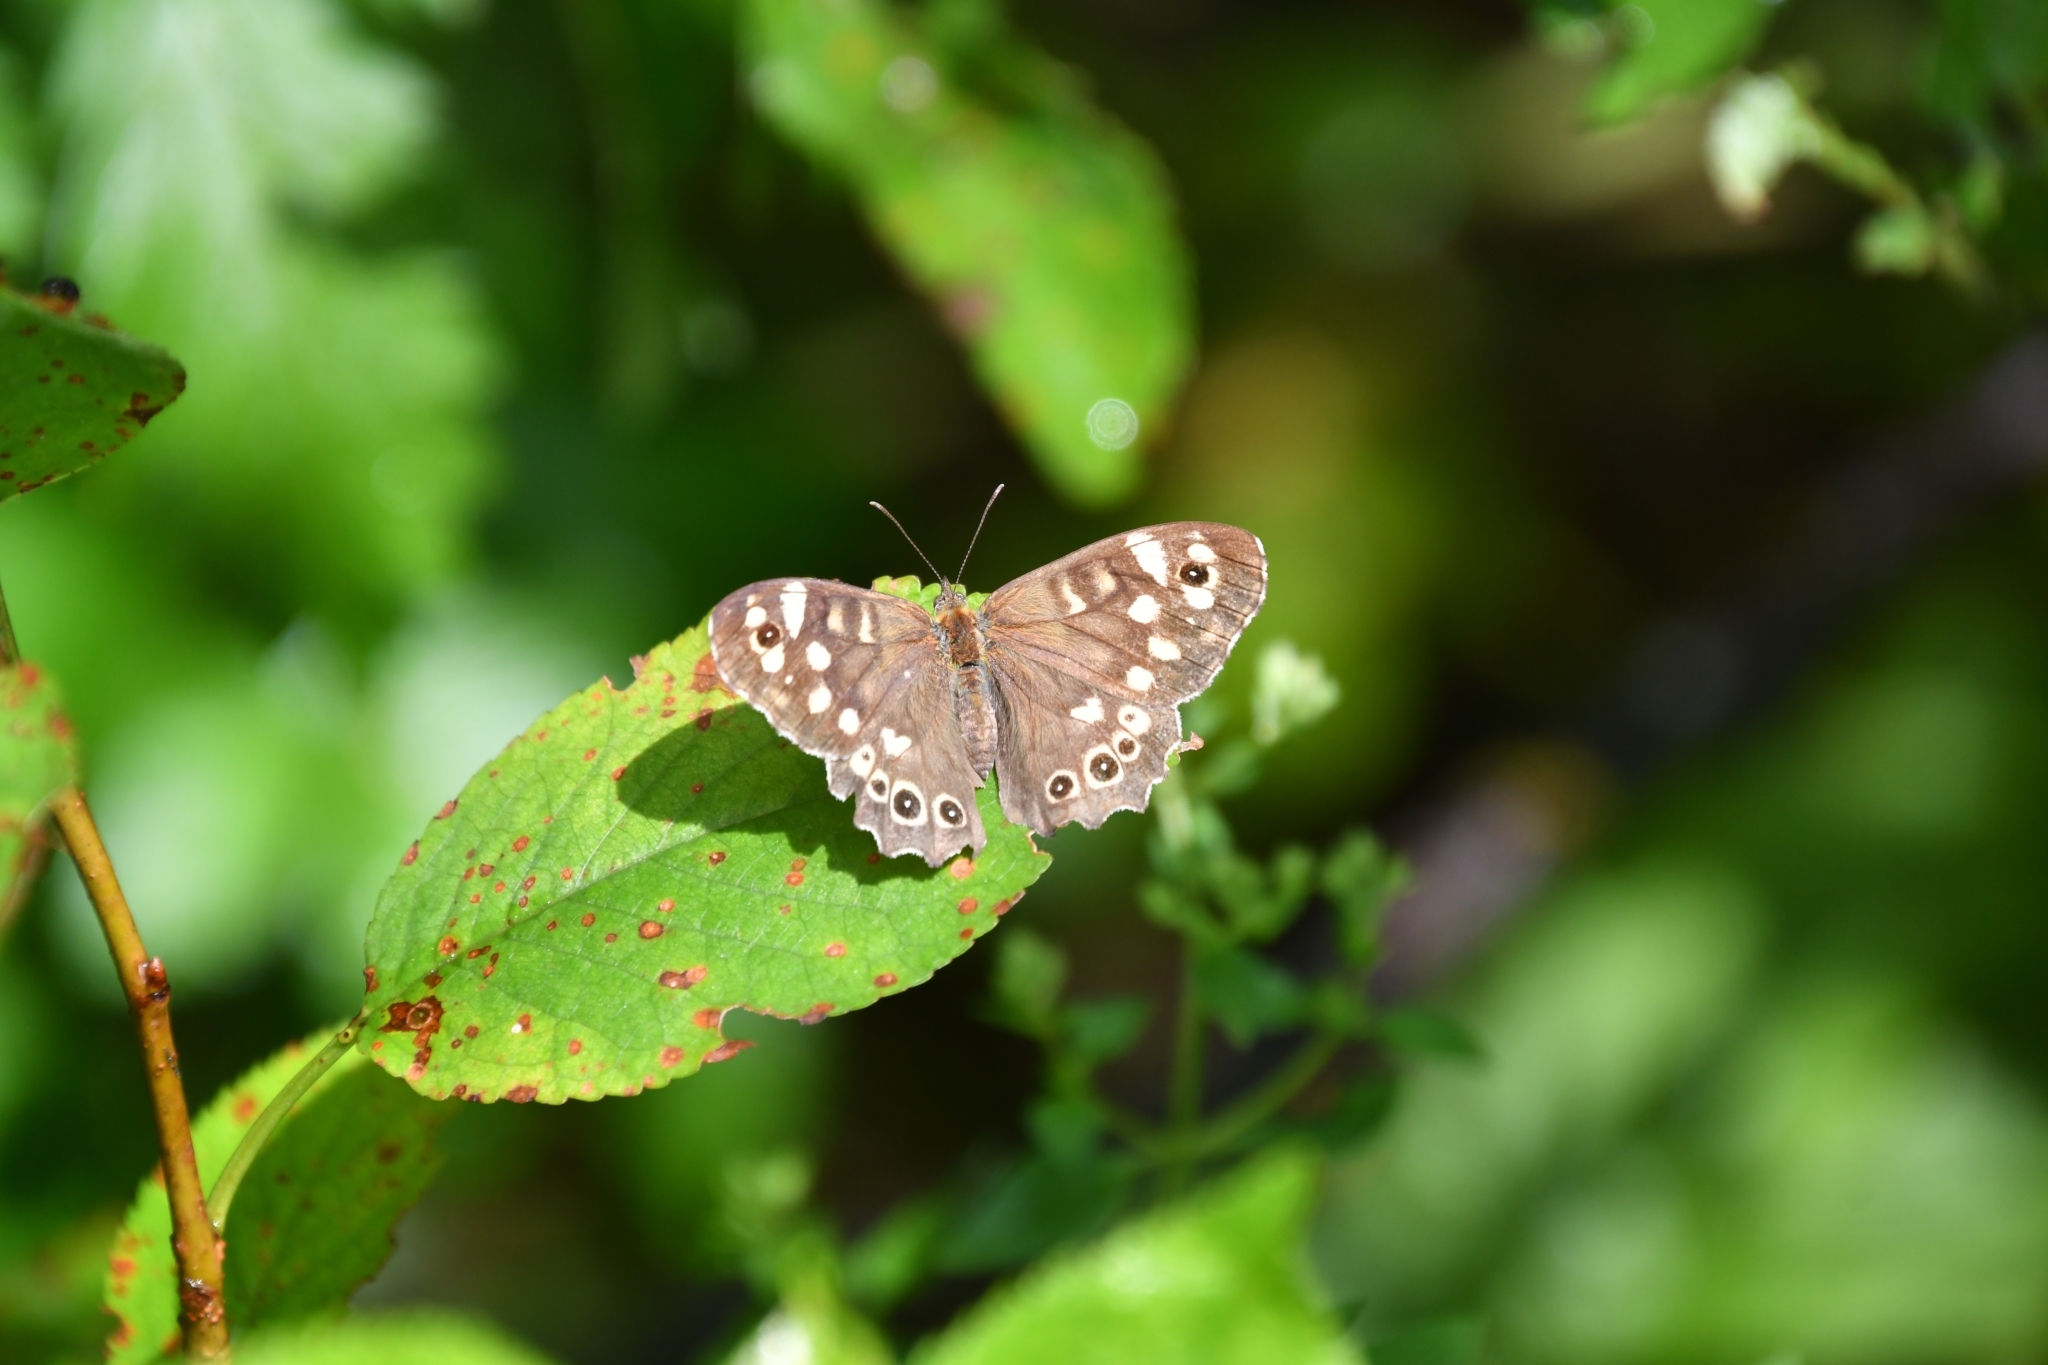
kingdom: Animalia
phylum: Arthropoda
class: Insecta
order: Lepidoptera
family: Nymphalidae
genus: Pararge
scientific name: Pararge aegeria
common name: Speckled wood
